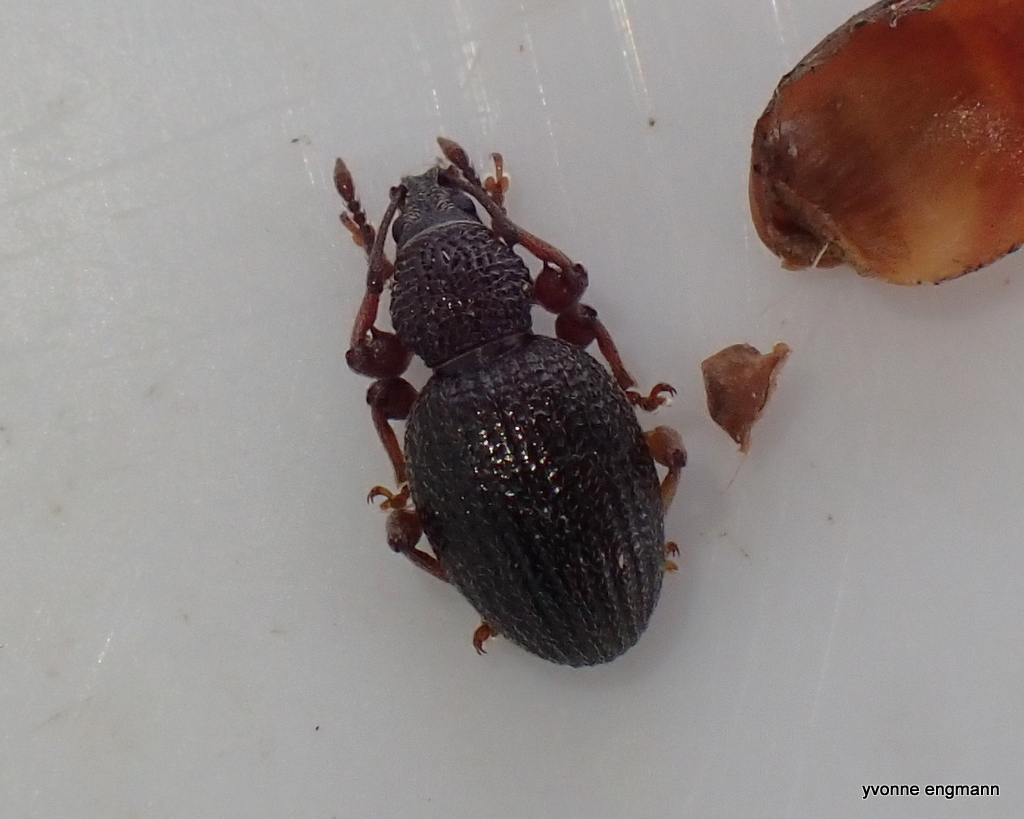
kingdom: Animalia
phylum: Arthropoda
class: Insecta
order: Coleoptera
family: Curculionidae
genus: Otiorhynchus
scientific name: Otiorhynchus ovatus
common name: Strawberry root weevil
